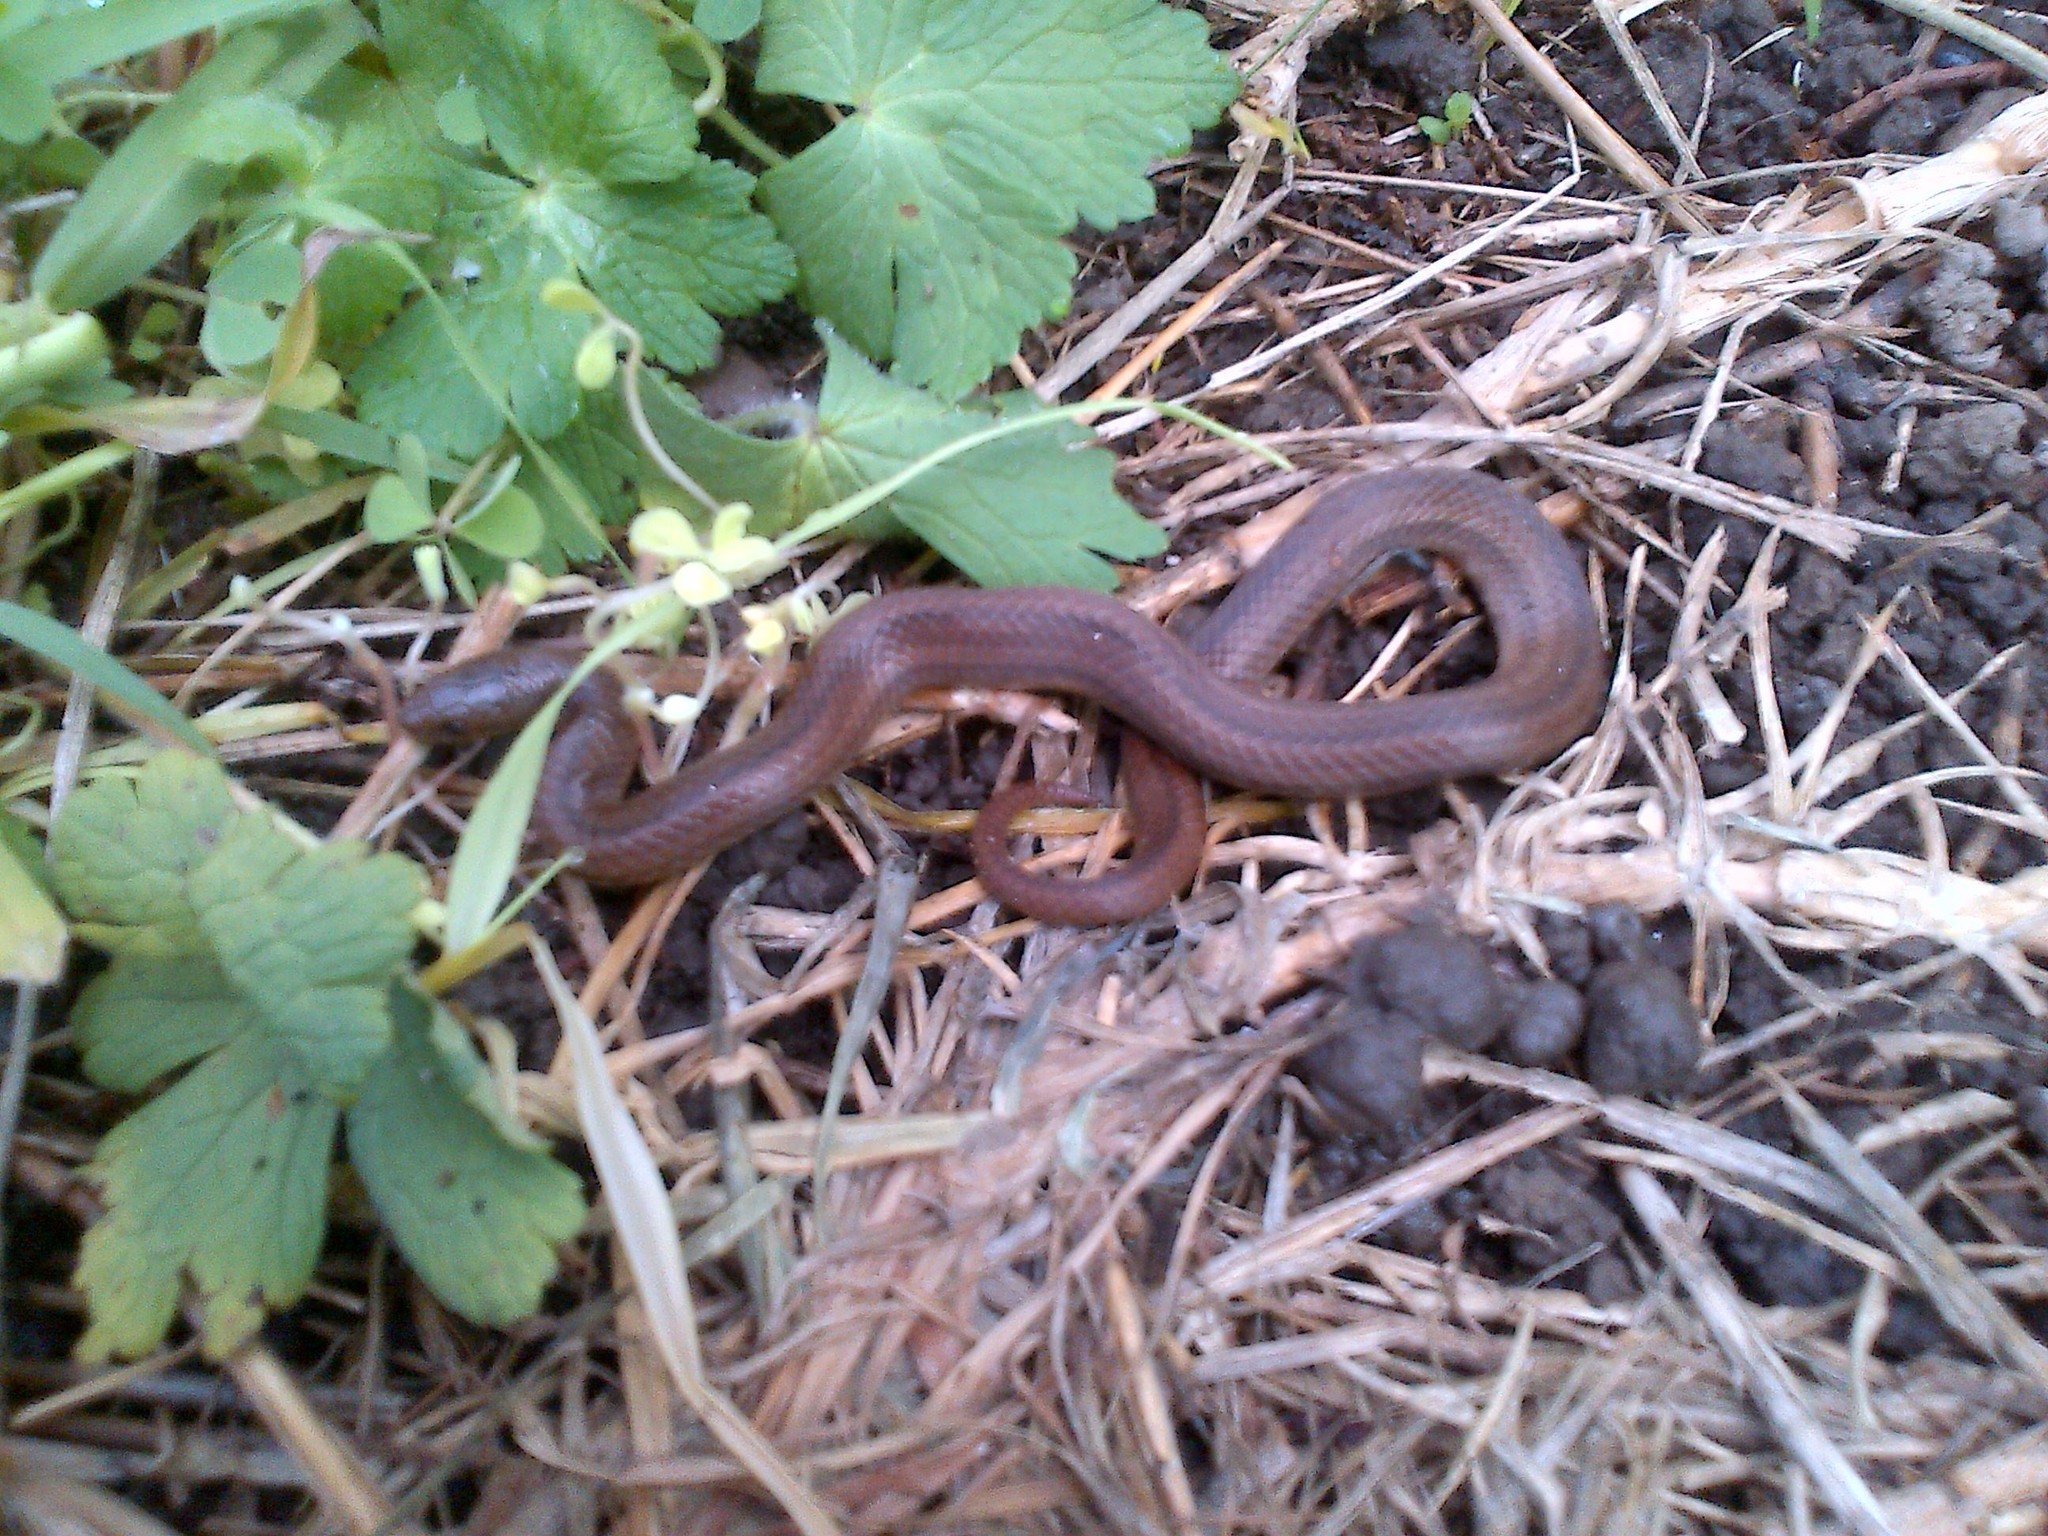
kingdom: Animalia
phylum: Chordata
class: Squamata
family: Colubridae
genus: Conopsis
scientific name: Conopsis lineata
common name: Lined tolucan earthsnake
